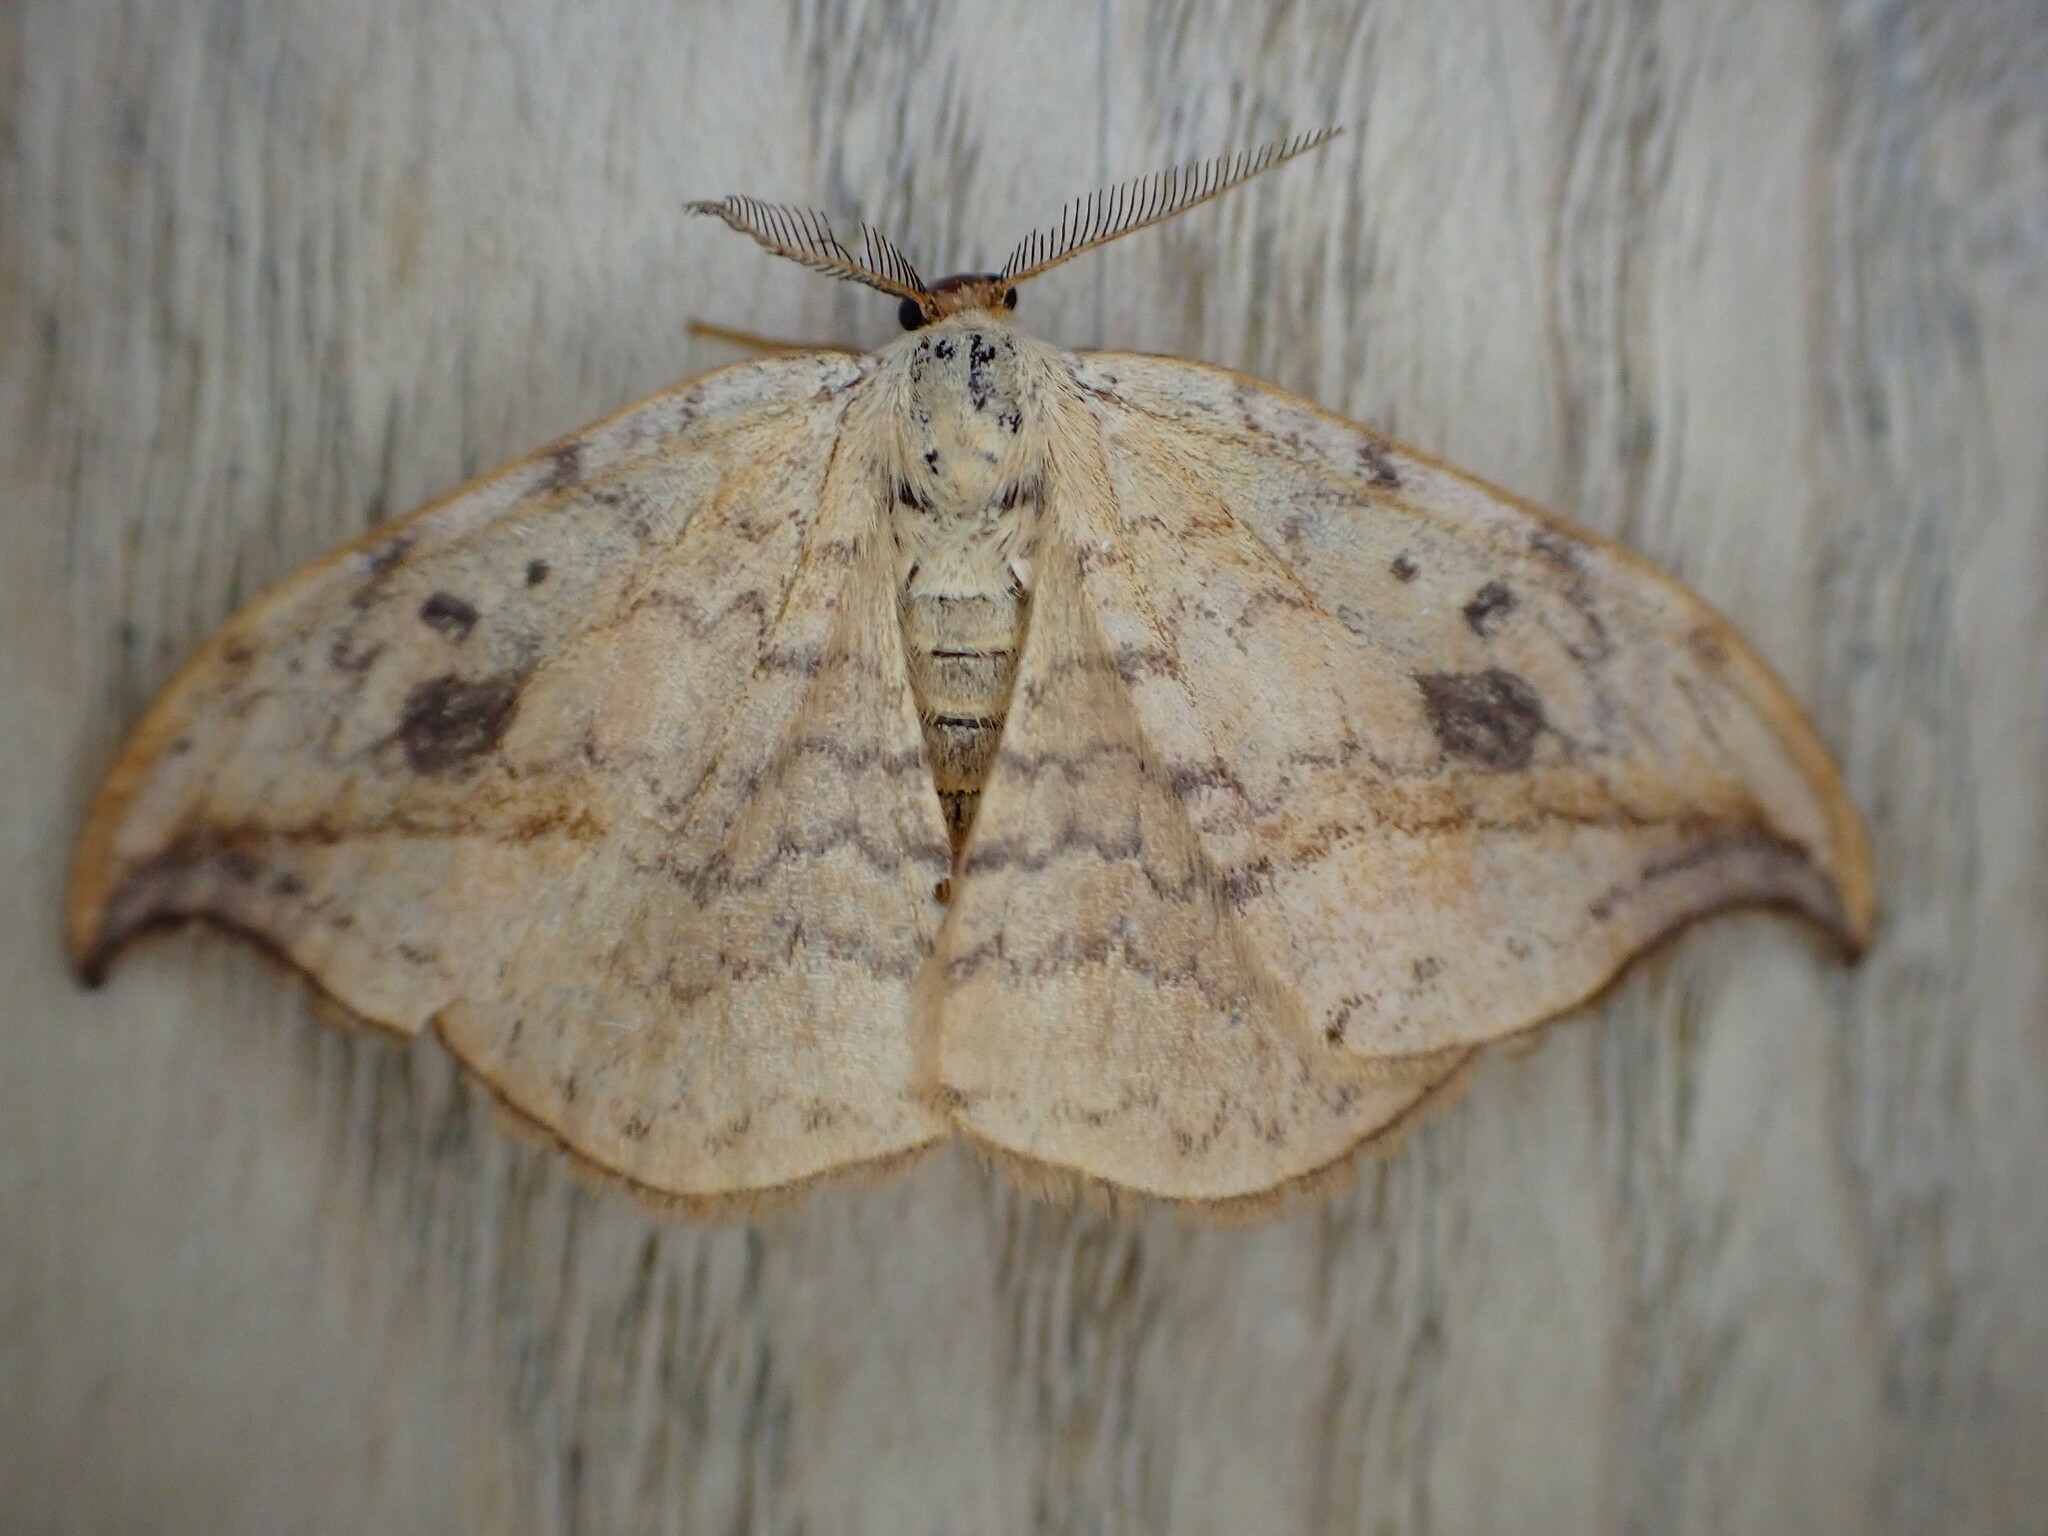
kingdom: Animalia
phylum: Arthropoda
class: Insecta
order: Lepidoptera
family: Drepanidae
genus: Drepana
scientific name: Drepana falcataria
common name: Pebble hook-tip
